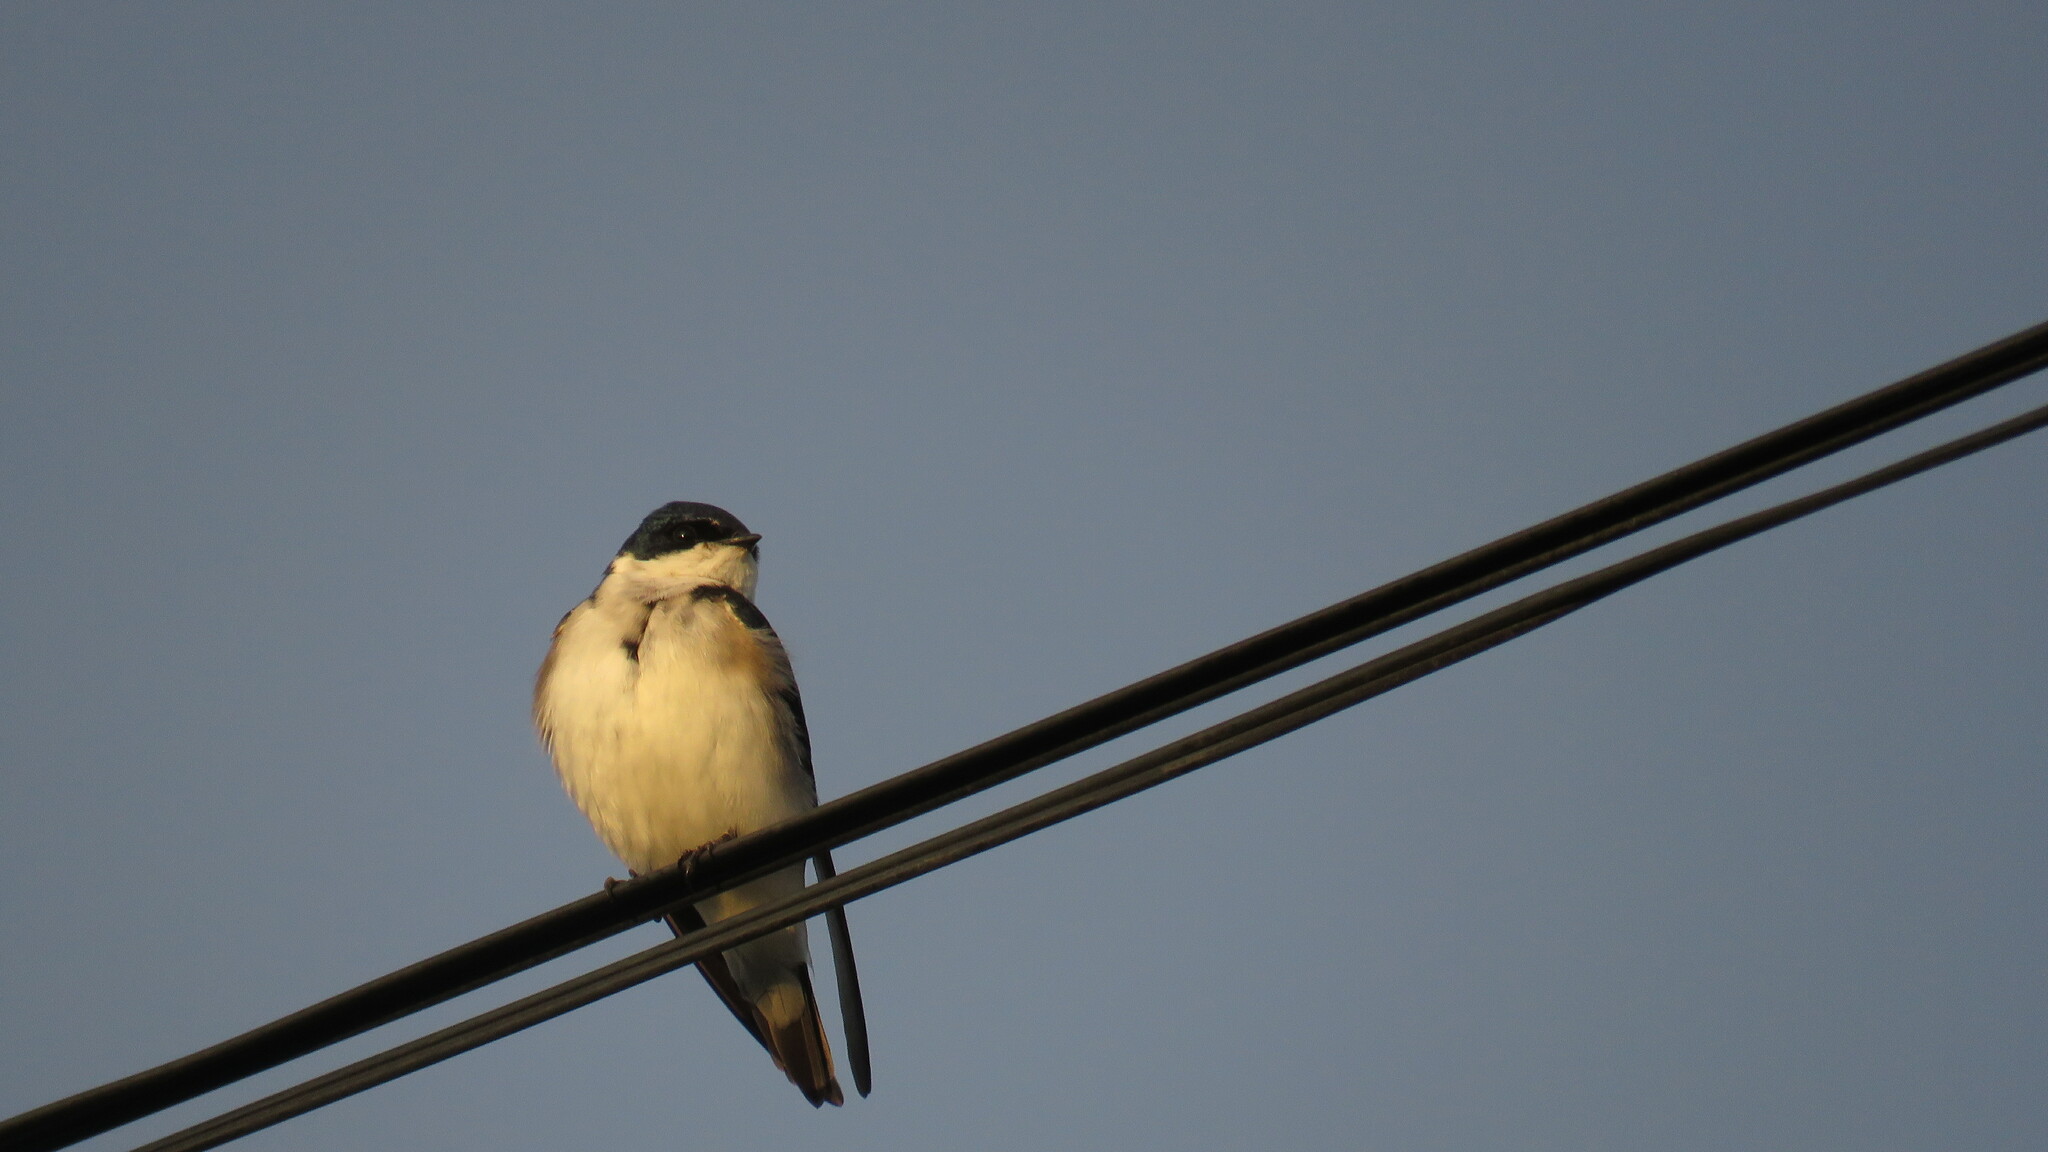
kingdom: Animalia
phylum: Chordata
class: Aves
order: Passeriformes
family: Hirundinidae
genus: Tachycineta
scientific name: Tachycineta leucopyga
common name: Chilean swallow
